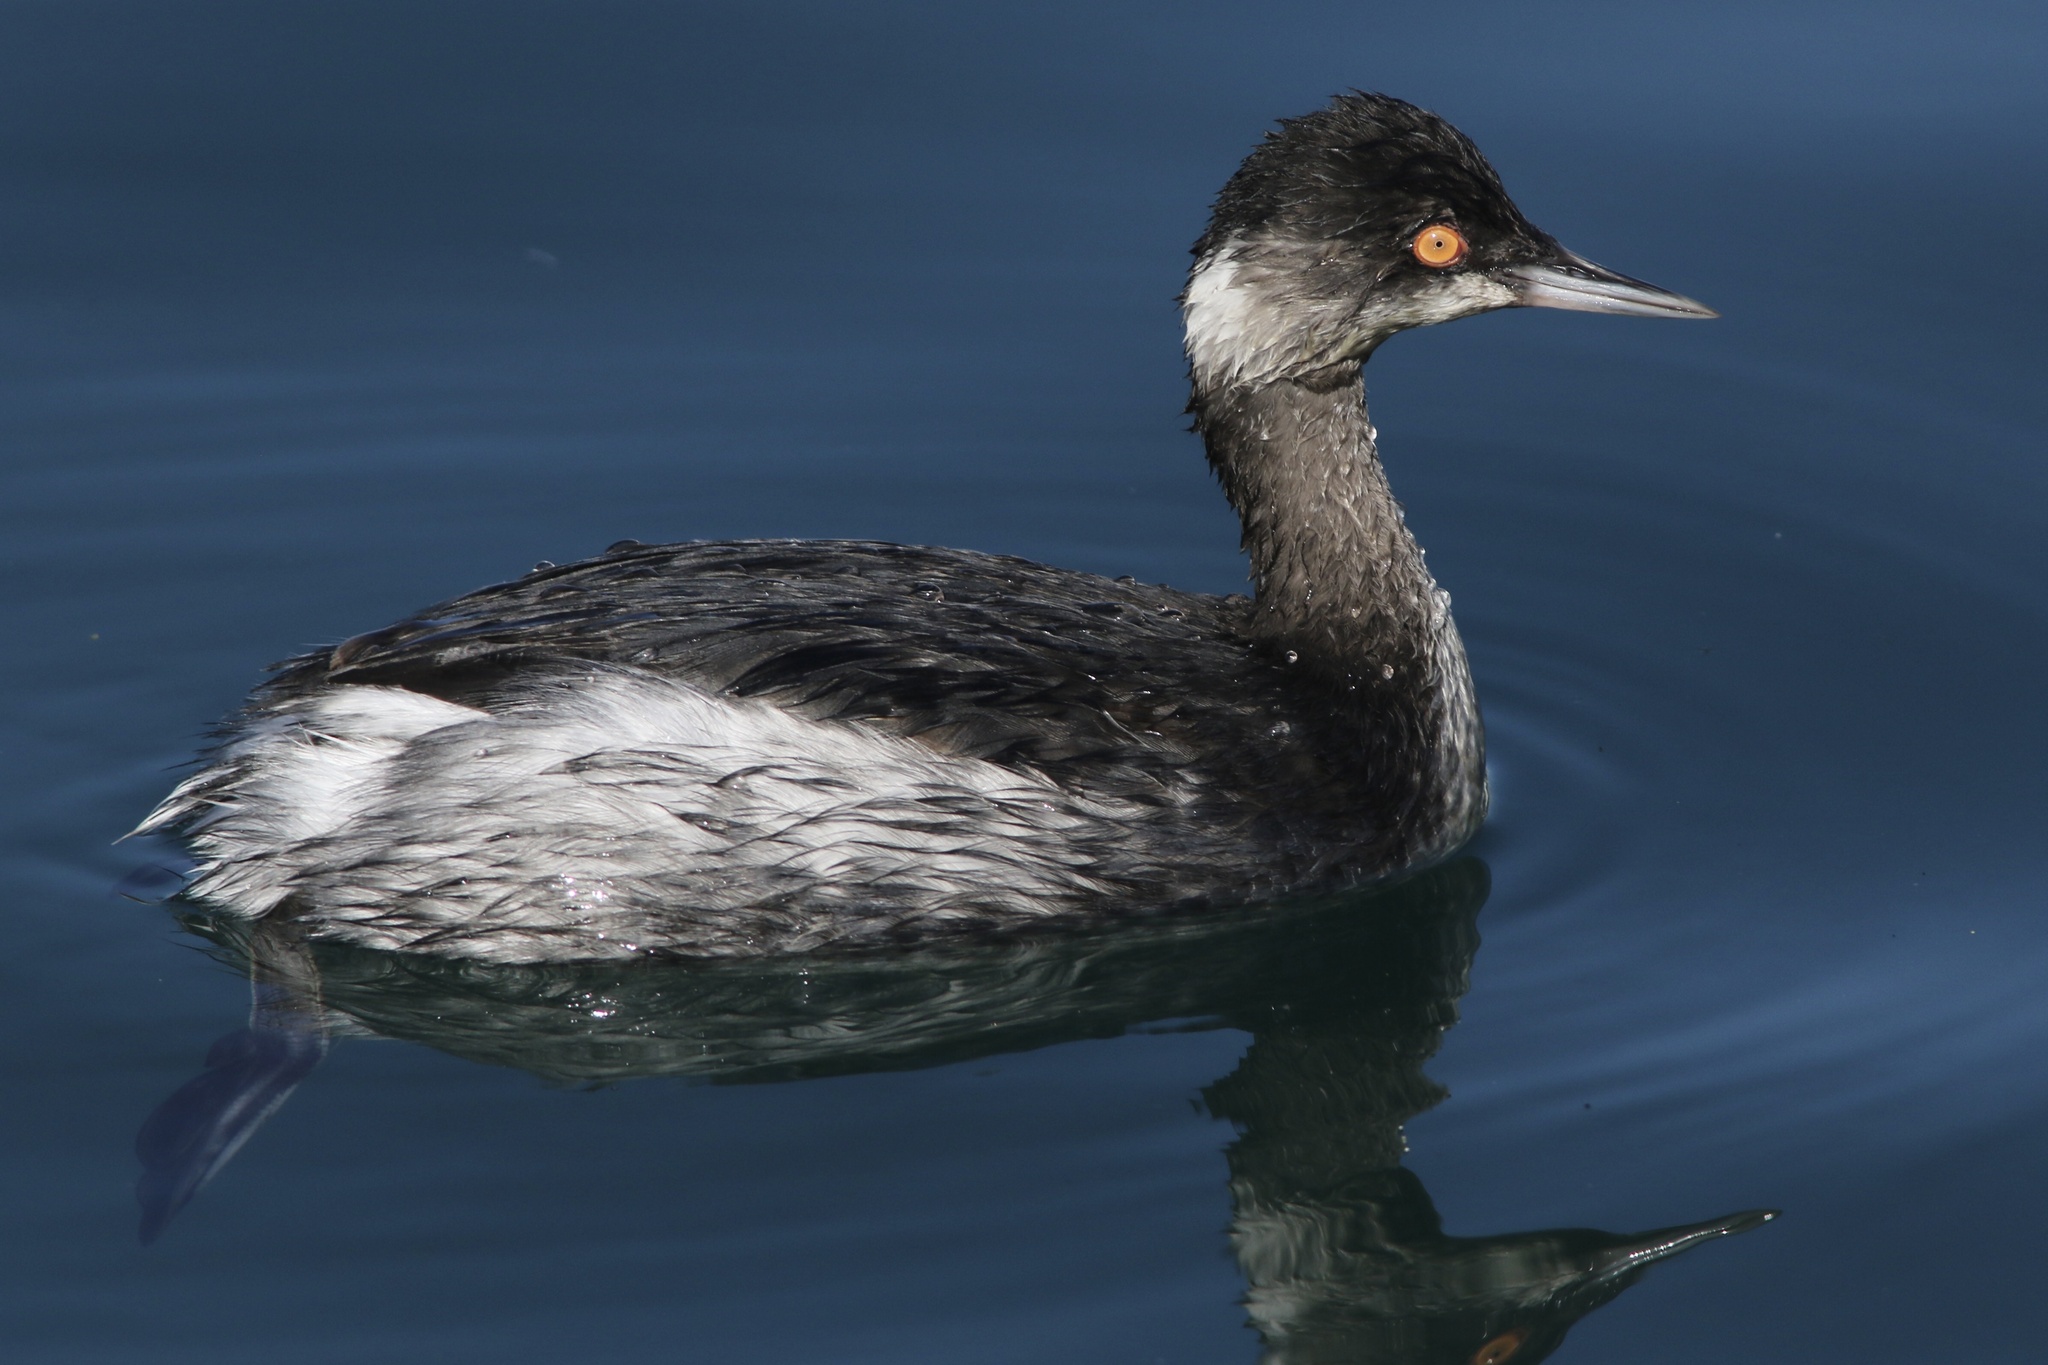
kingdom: Animalia
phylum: Chordata
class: Aves
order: Podicipediformes
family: Podicipedidae
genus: Podiceps
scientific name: Podiceps nigricollis
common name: Black-necked grebe
